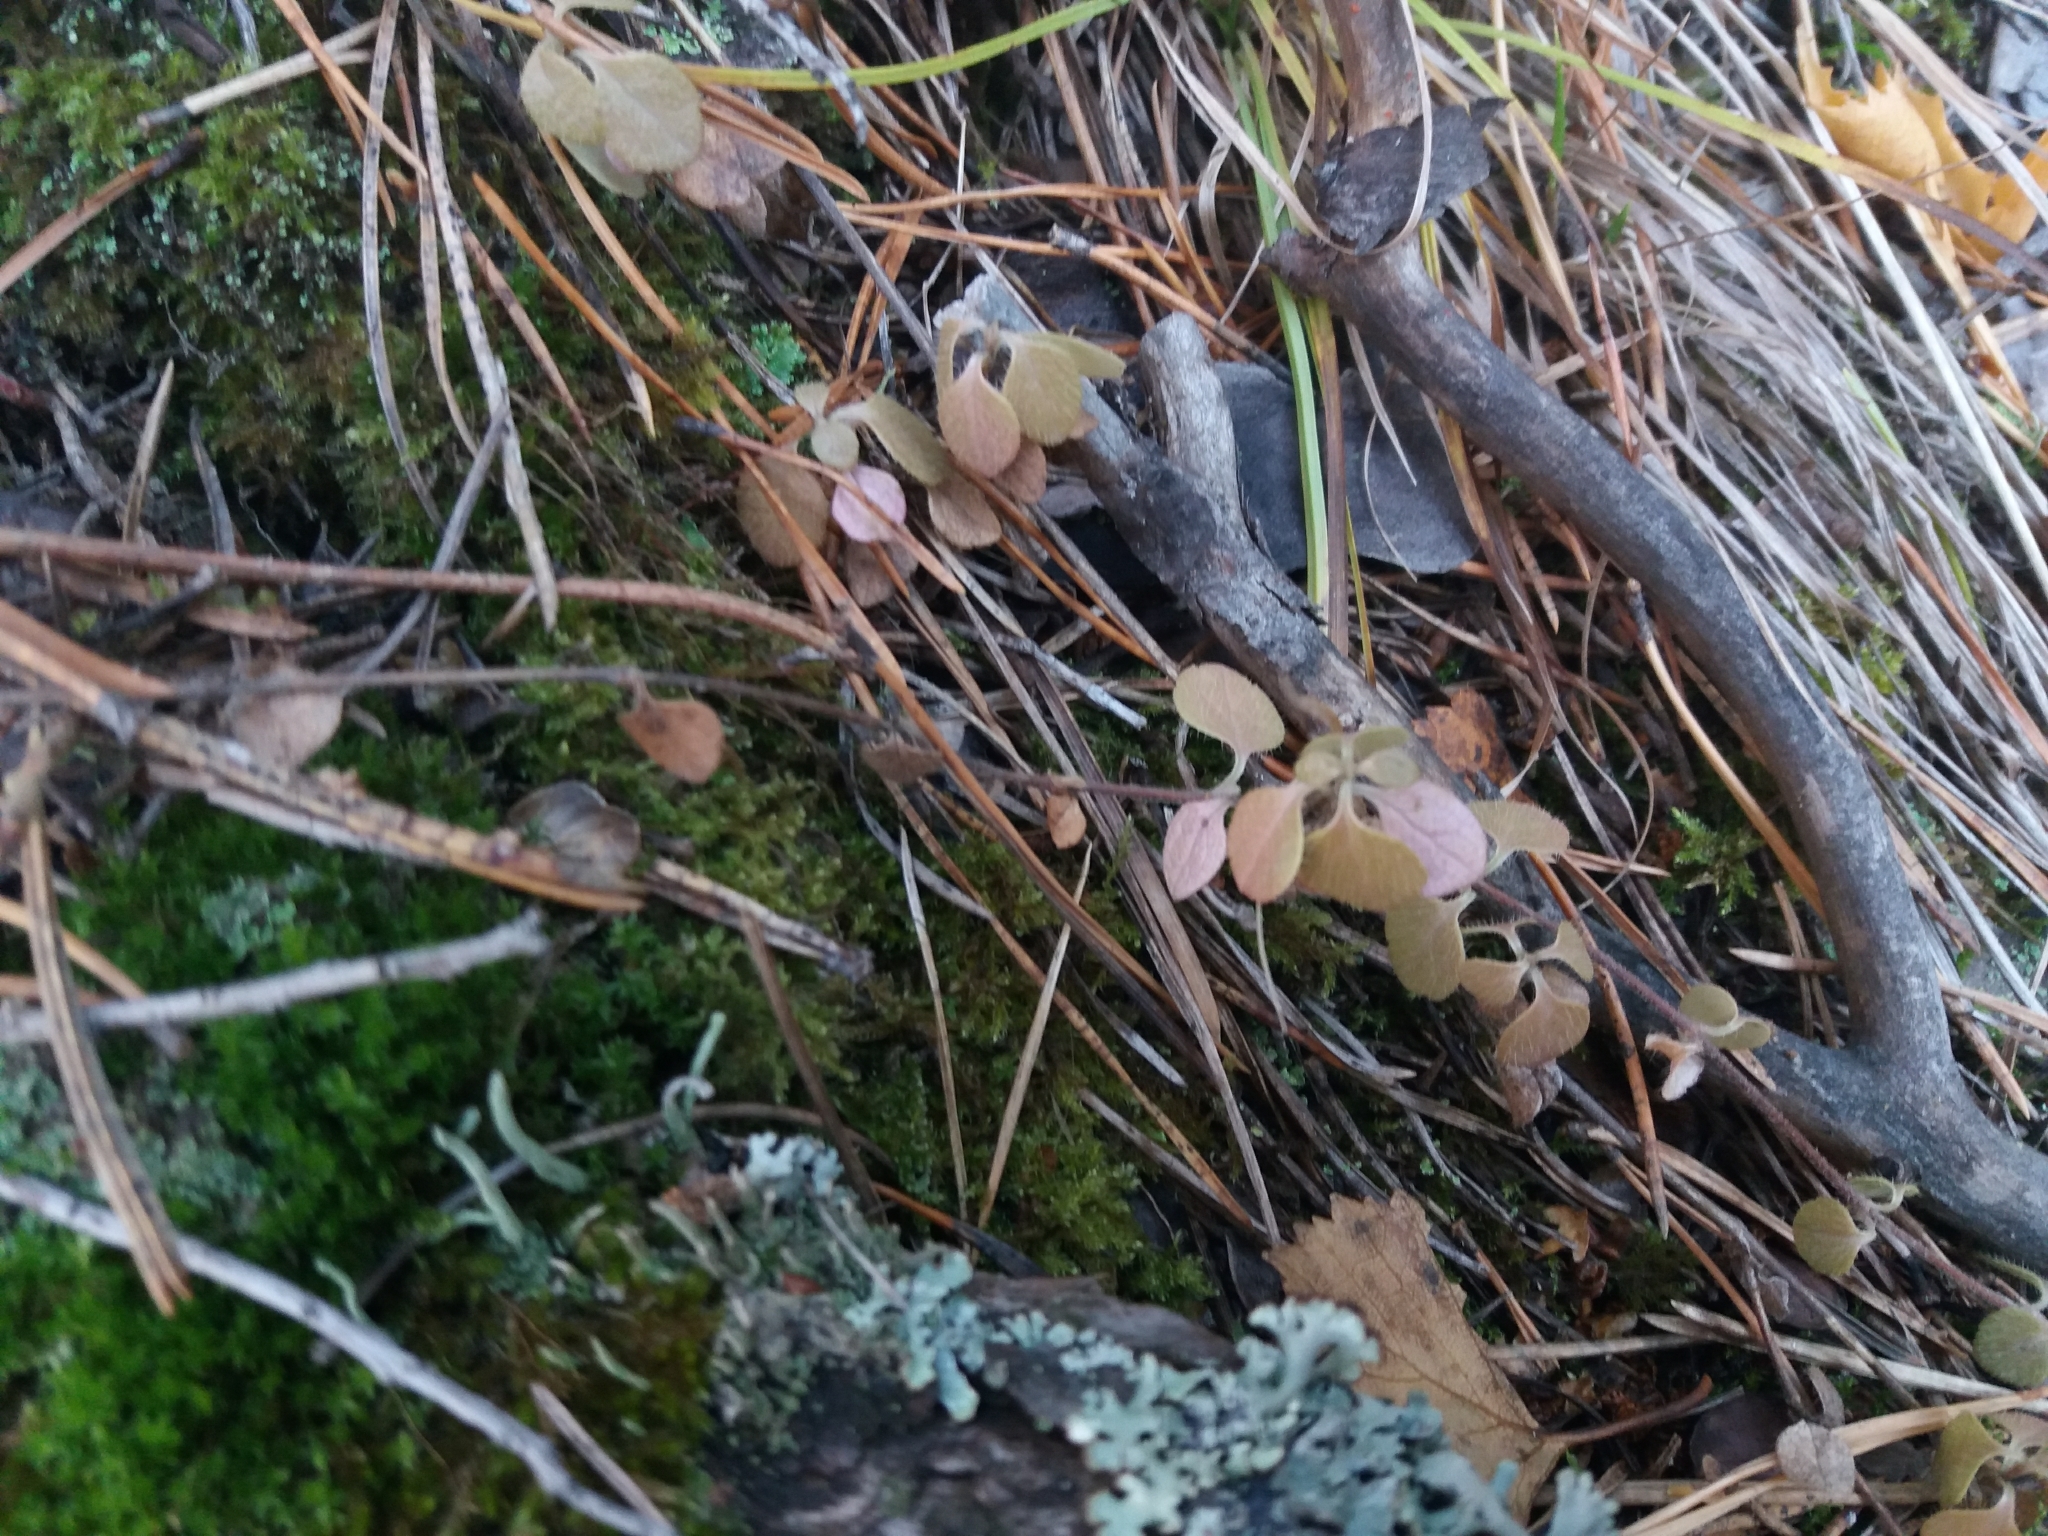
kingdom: Plantae
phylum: Tracheophyta
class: Magnoliopsida
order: Dipsacales
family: Caprifoliaceae
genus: Linnaea
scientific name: Linnaea borealis
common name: Twinflower
